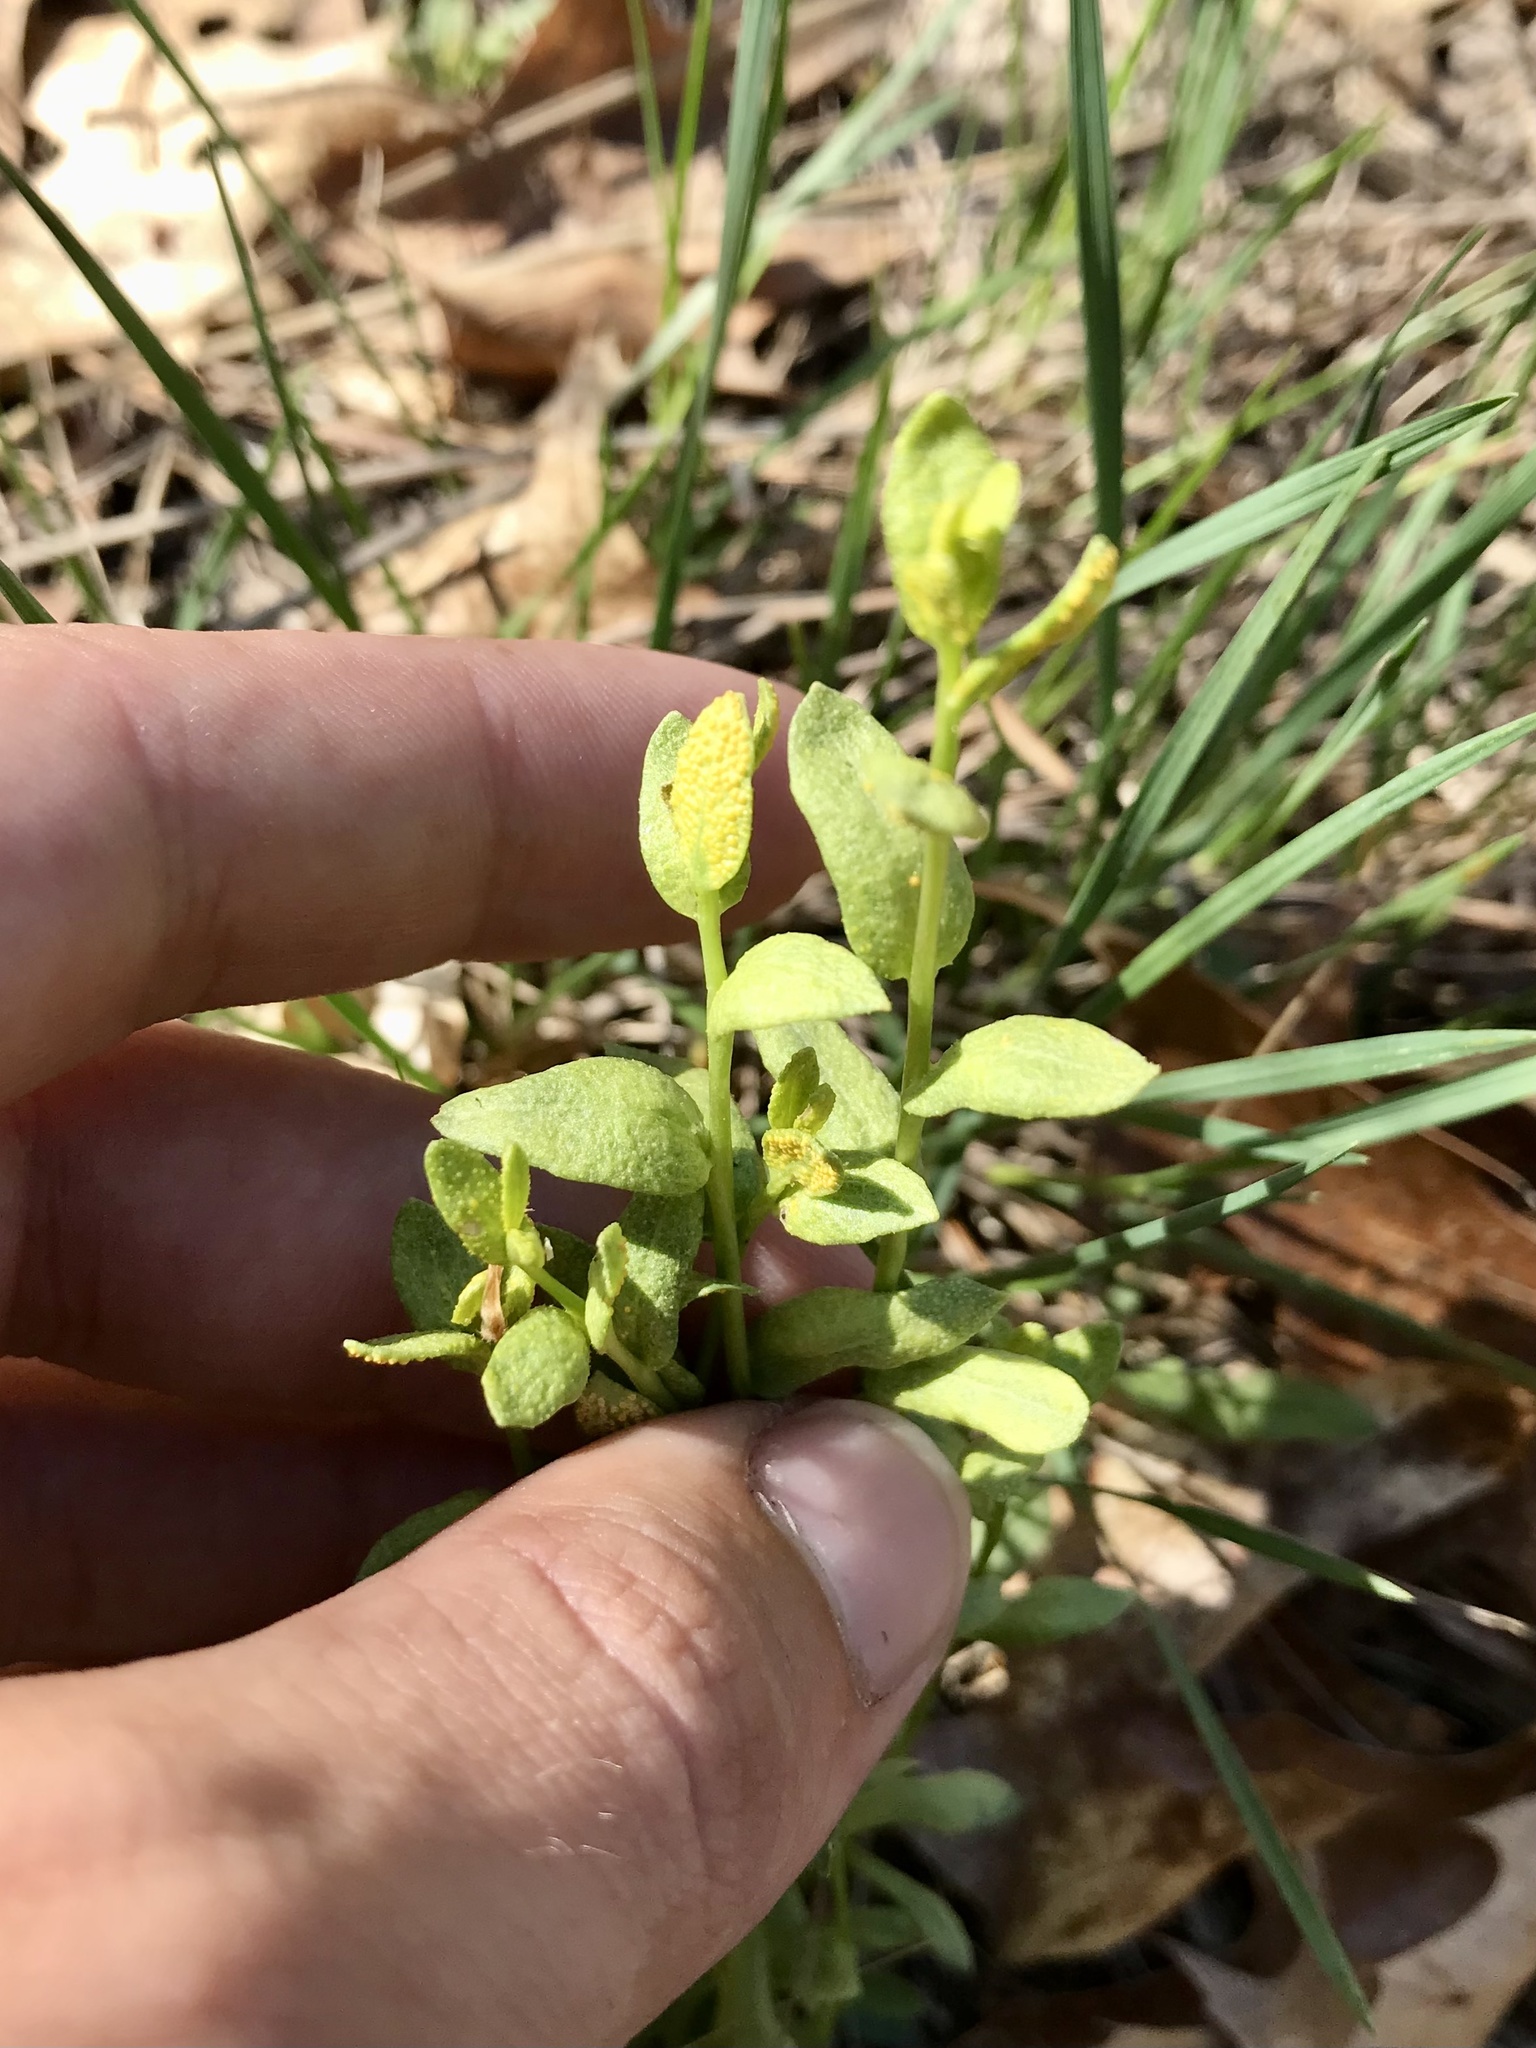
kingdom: Fungi
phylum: Basidiomycota
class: Pucciniomycetes
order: Pucciniales
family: Pucciniaceae
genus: Puccinia
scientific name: Puccinia monoica
